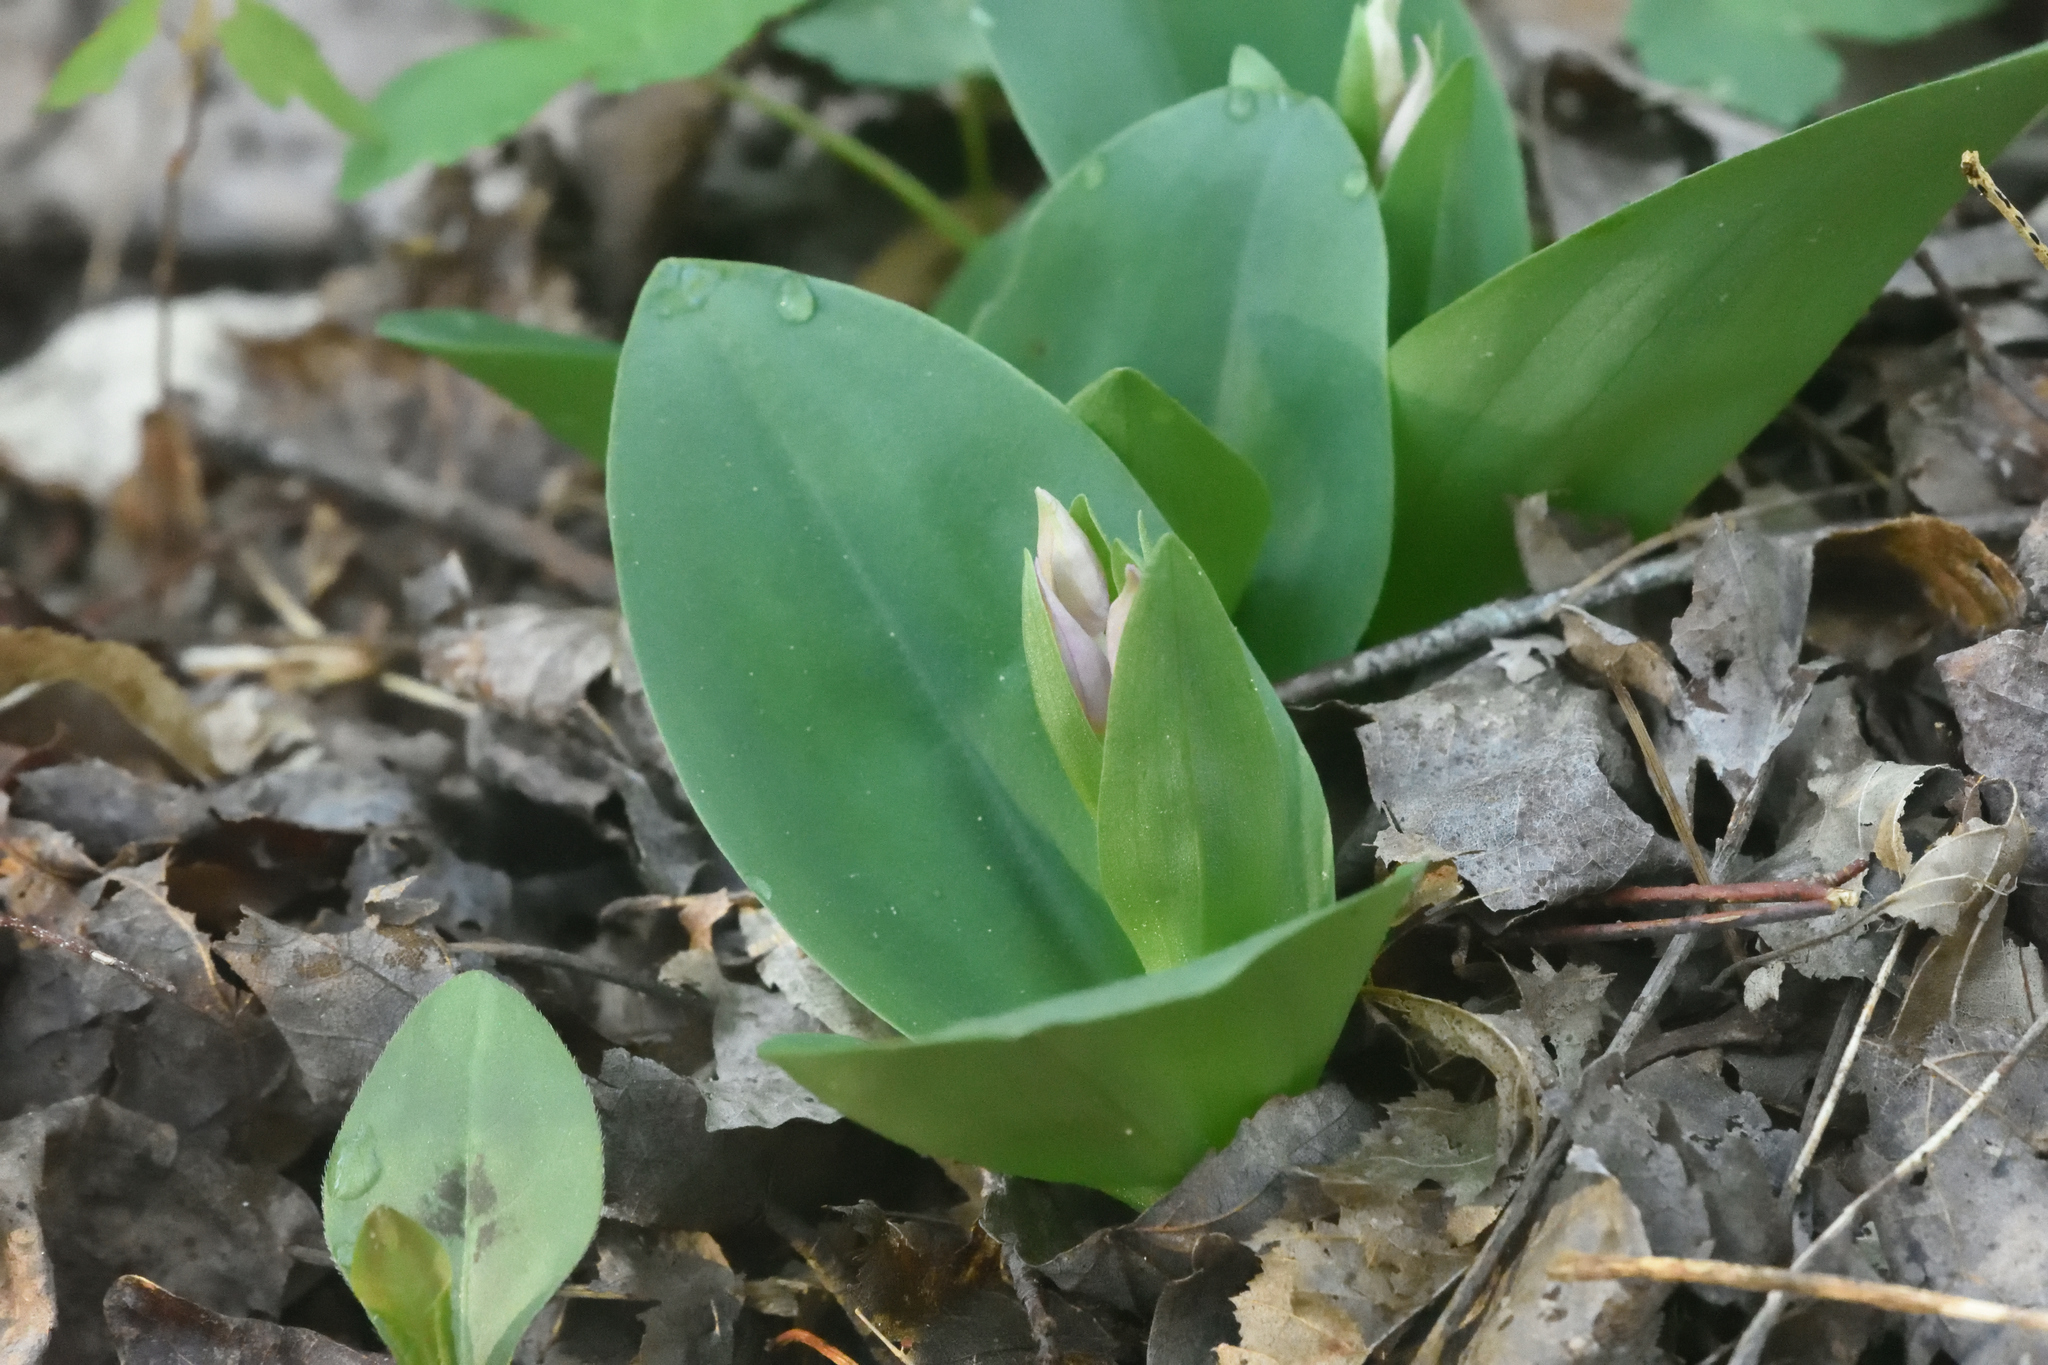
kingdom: Plantae
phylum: Tracheophyta
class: Liliopsida
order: Asparagales
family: Orchidaceae
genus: Galearis
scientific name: Galearis spectabilis
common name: Purple-hooded orchis
